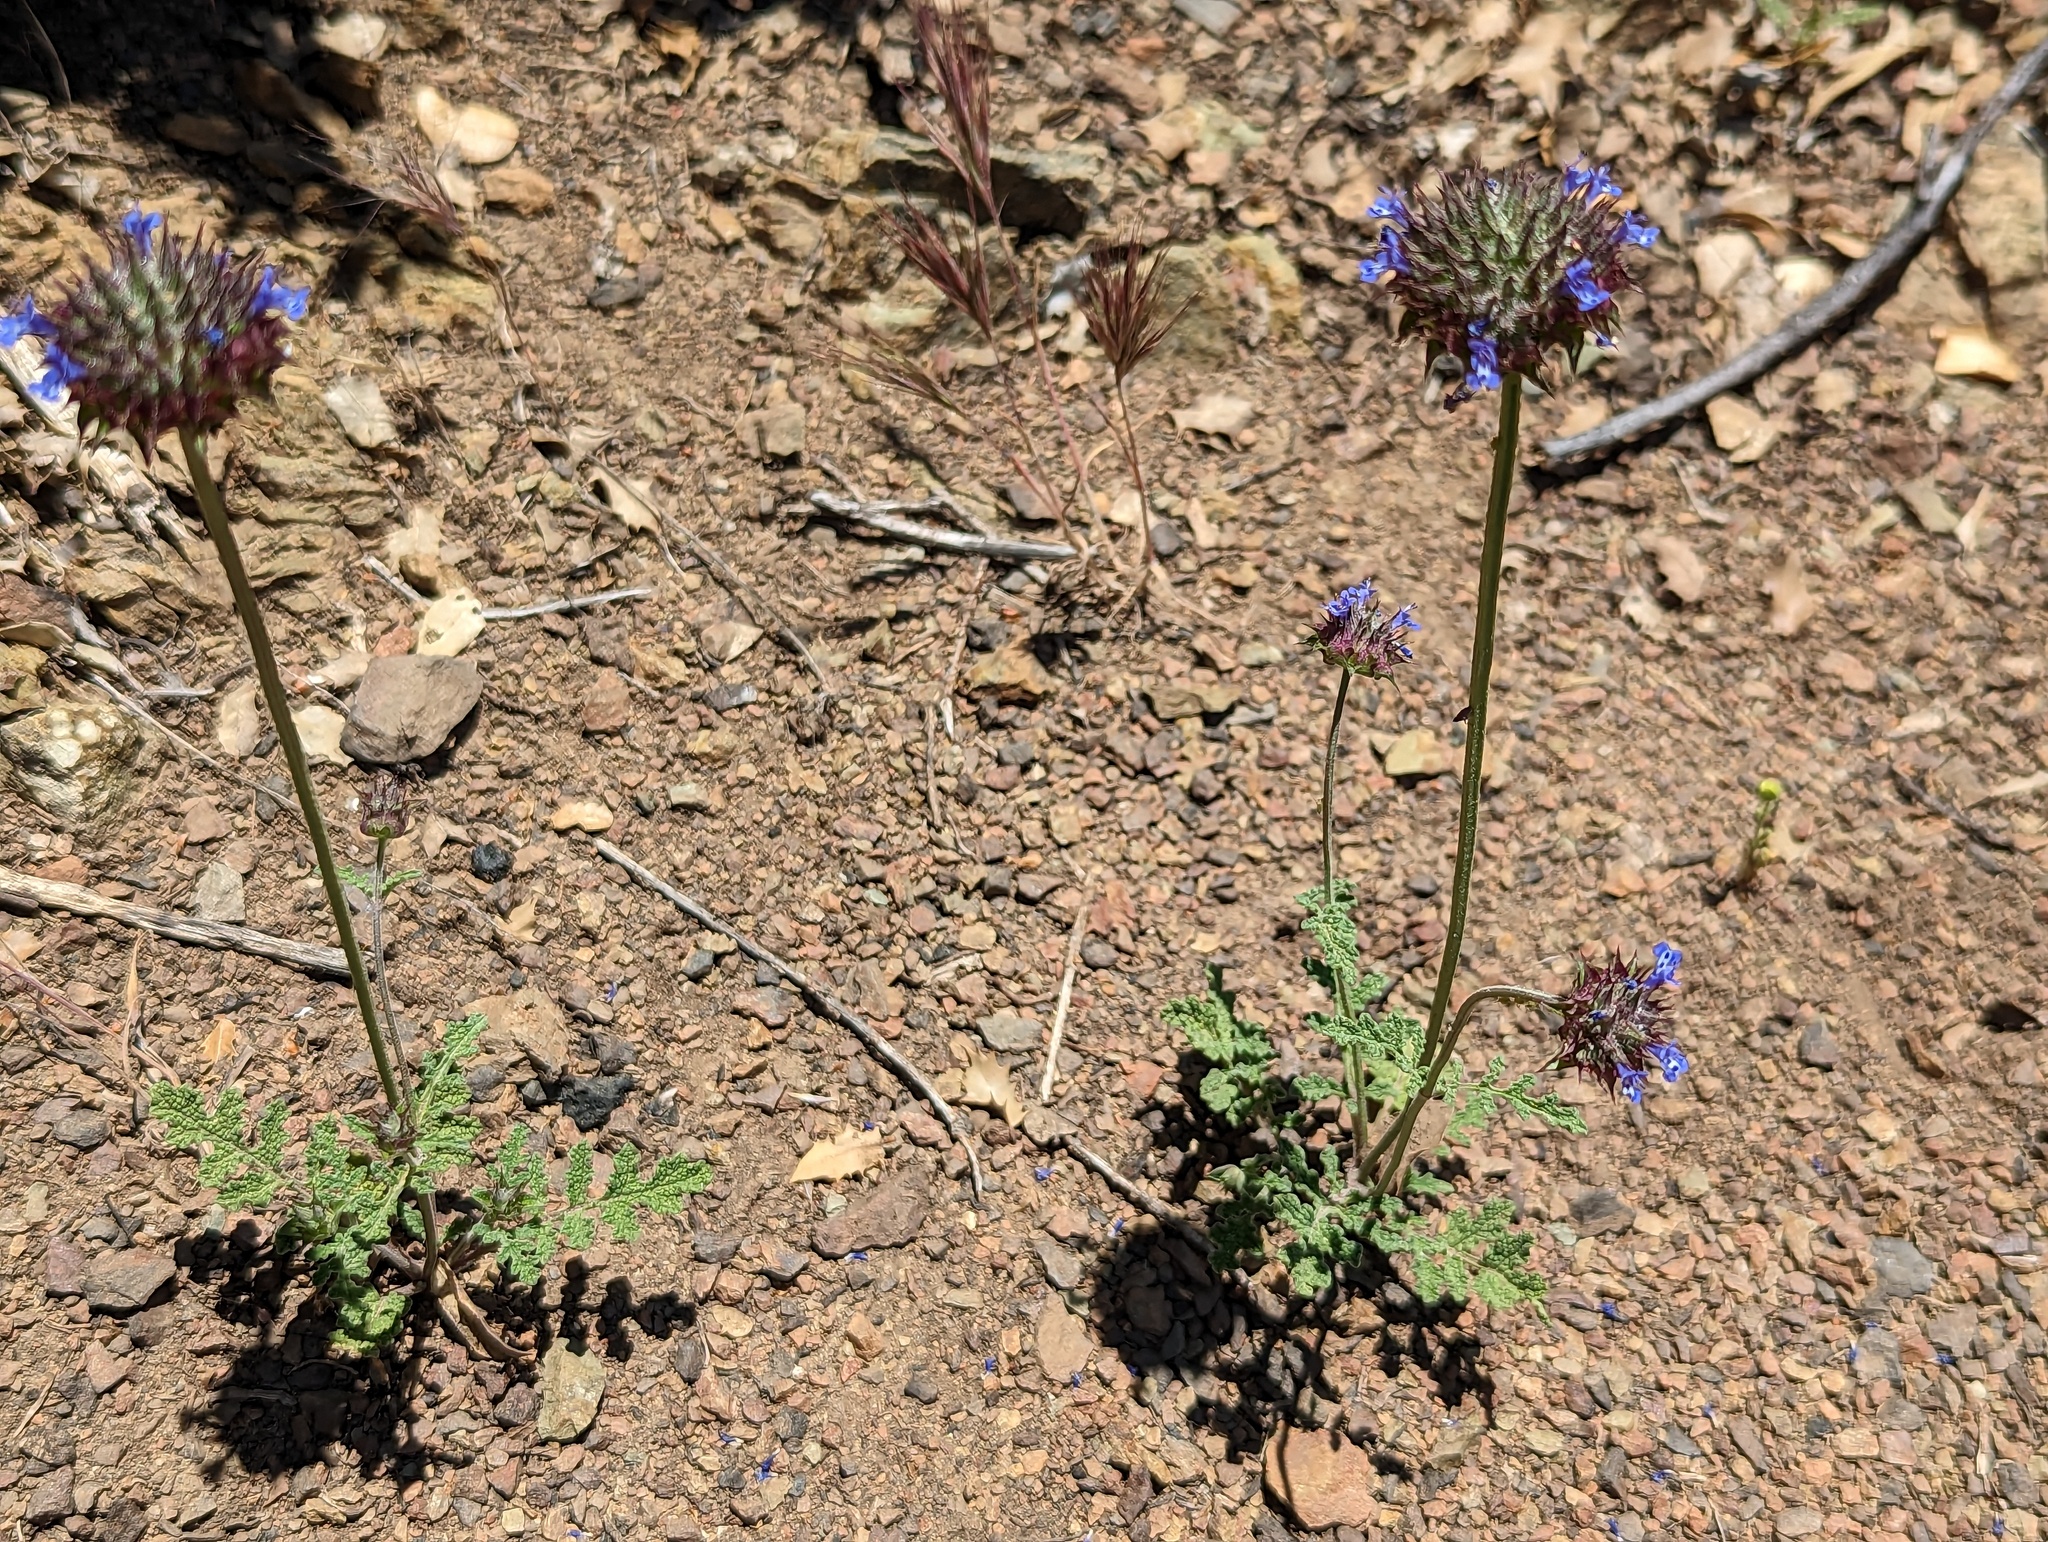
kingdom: Plantae
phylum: Tracheophyta
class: Magnoliopsida
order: Lamiales
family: Lamiaceae
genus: Salvia
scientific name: Salvia columbariae
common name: Chia
